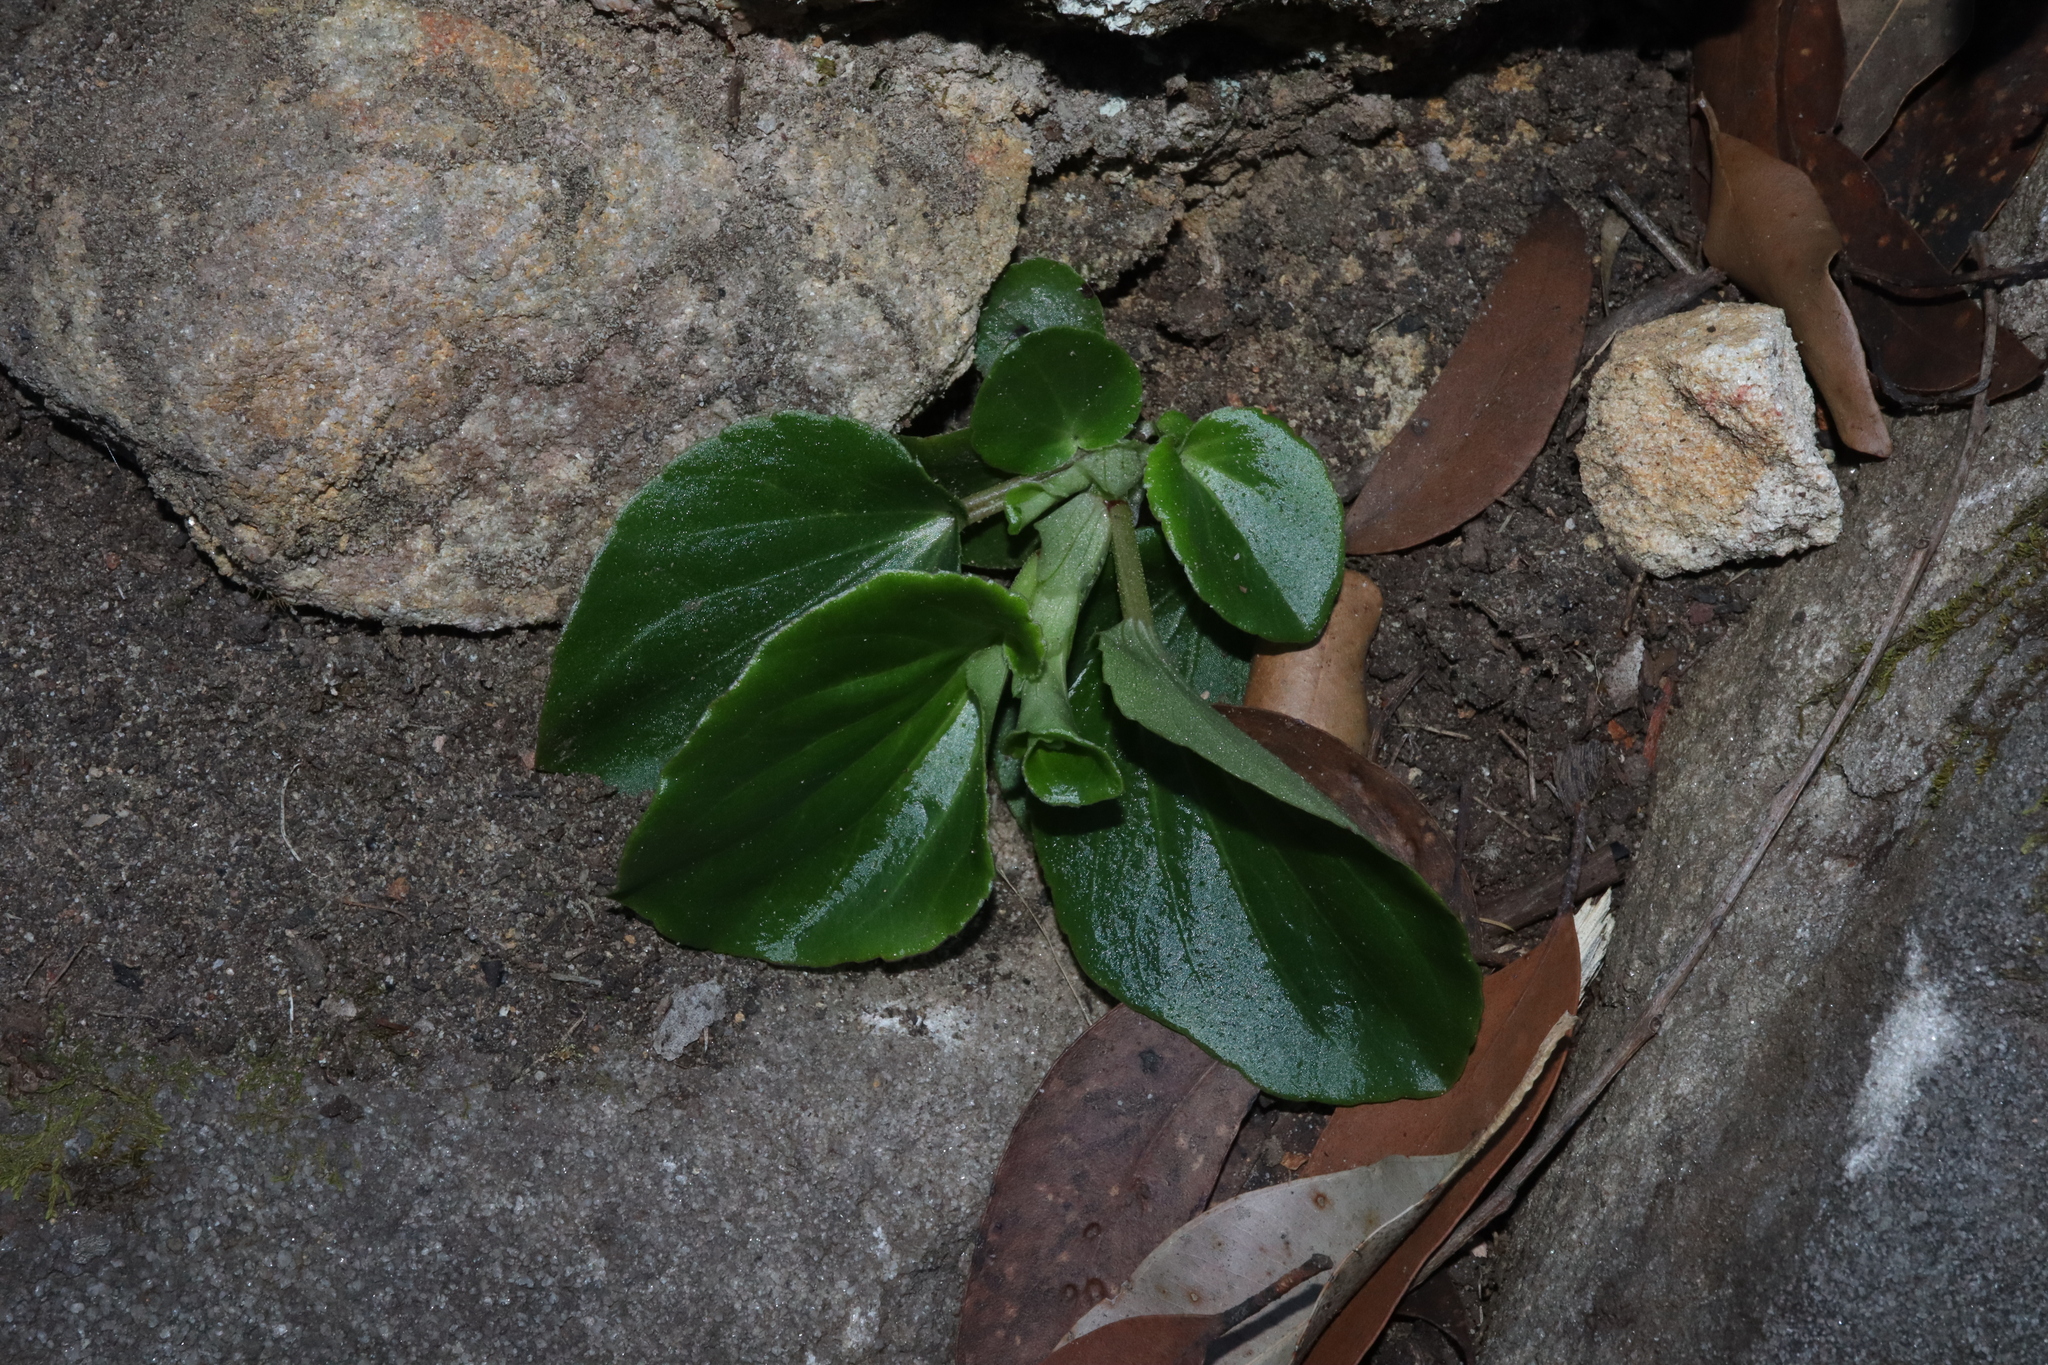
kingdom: Plantae
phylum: Tracheophyta
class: Magnoliopsida
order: Cucurbitales
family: Begoniaceae
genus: Begonia
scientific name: Begonia cucullata
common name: Clubbed begonia
